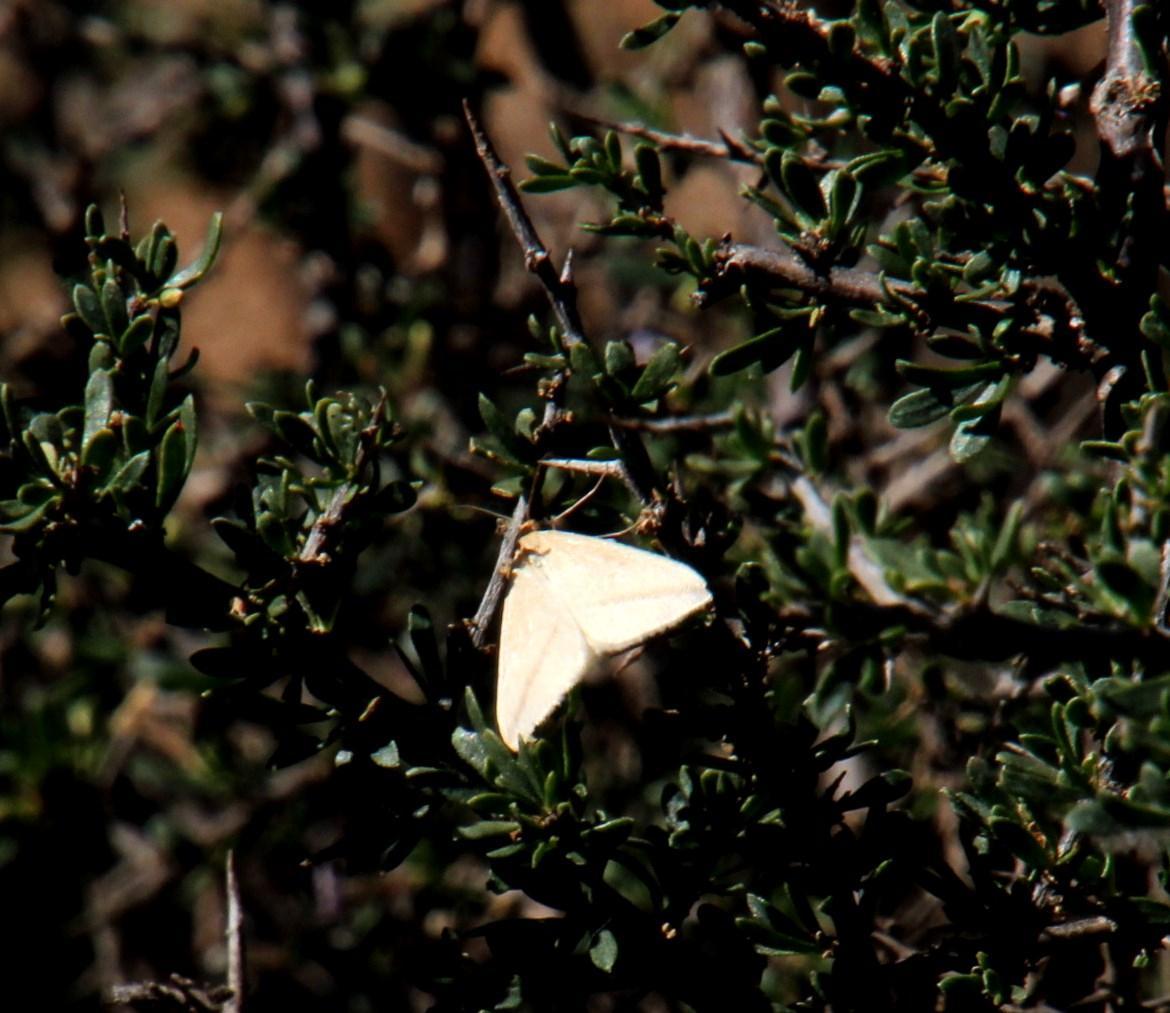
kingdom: Animalia
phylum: Arthropoda
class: Insecta
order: Lepidoptera
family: Geometridae
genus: Rhodometra
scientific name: Rhodometra sacraria
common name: Vestal
